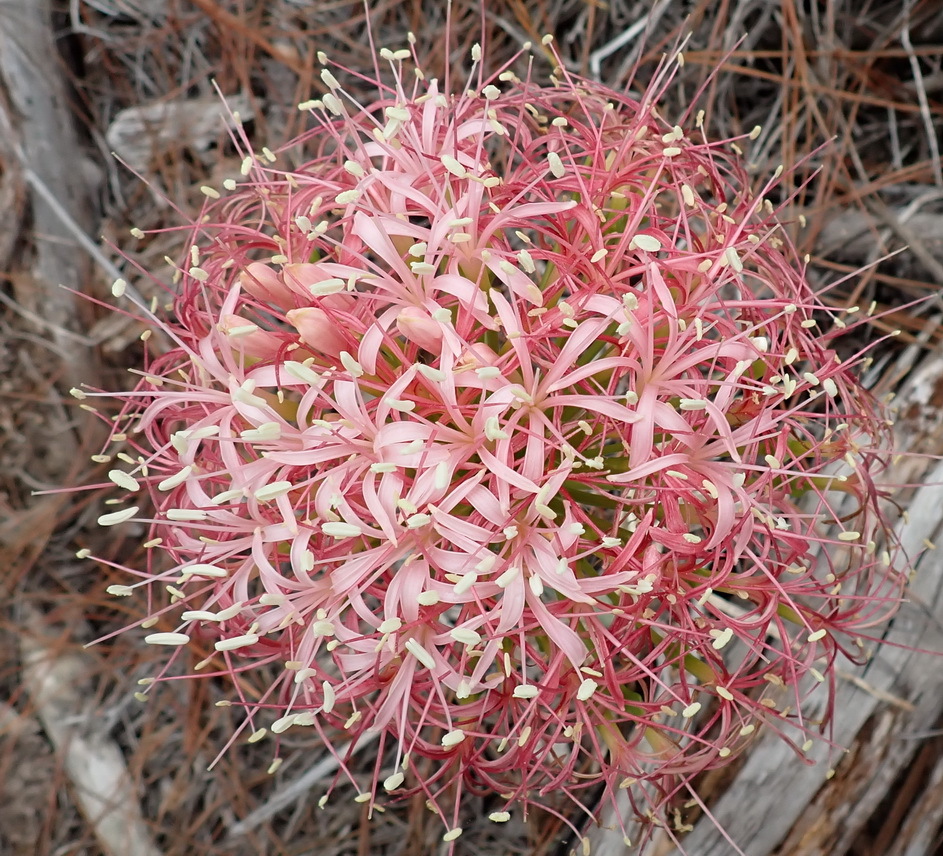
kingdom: Plantae
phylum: Tracheophyta
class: Liliopsida
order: Asparagales
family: Amaryllidaceae
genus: Boophone
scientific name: Boophone disticha
